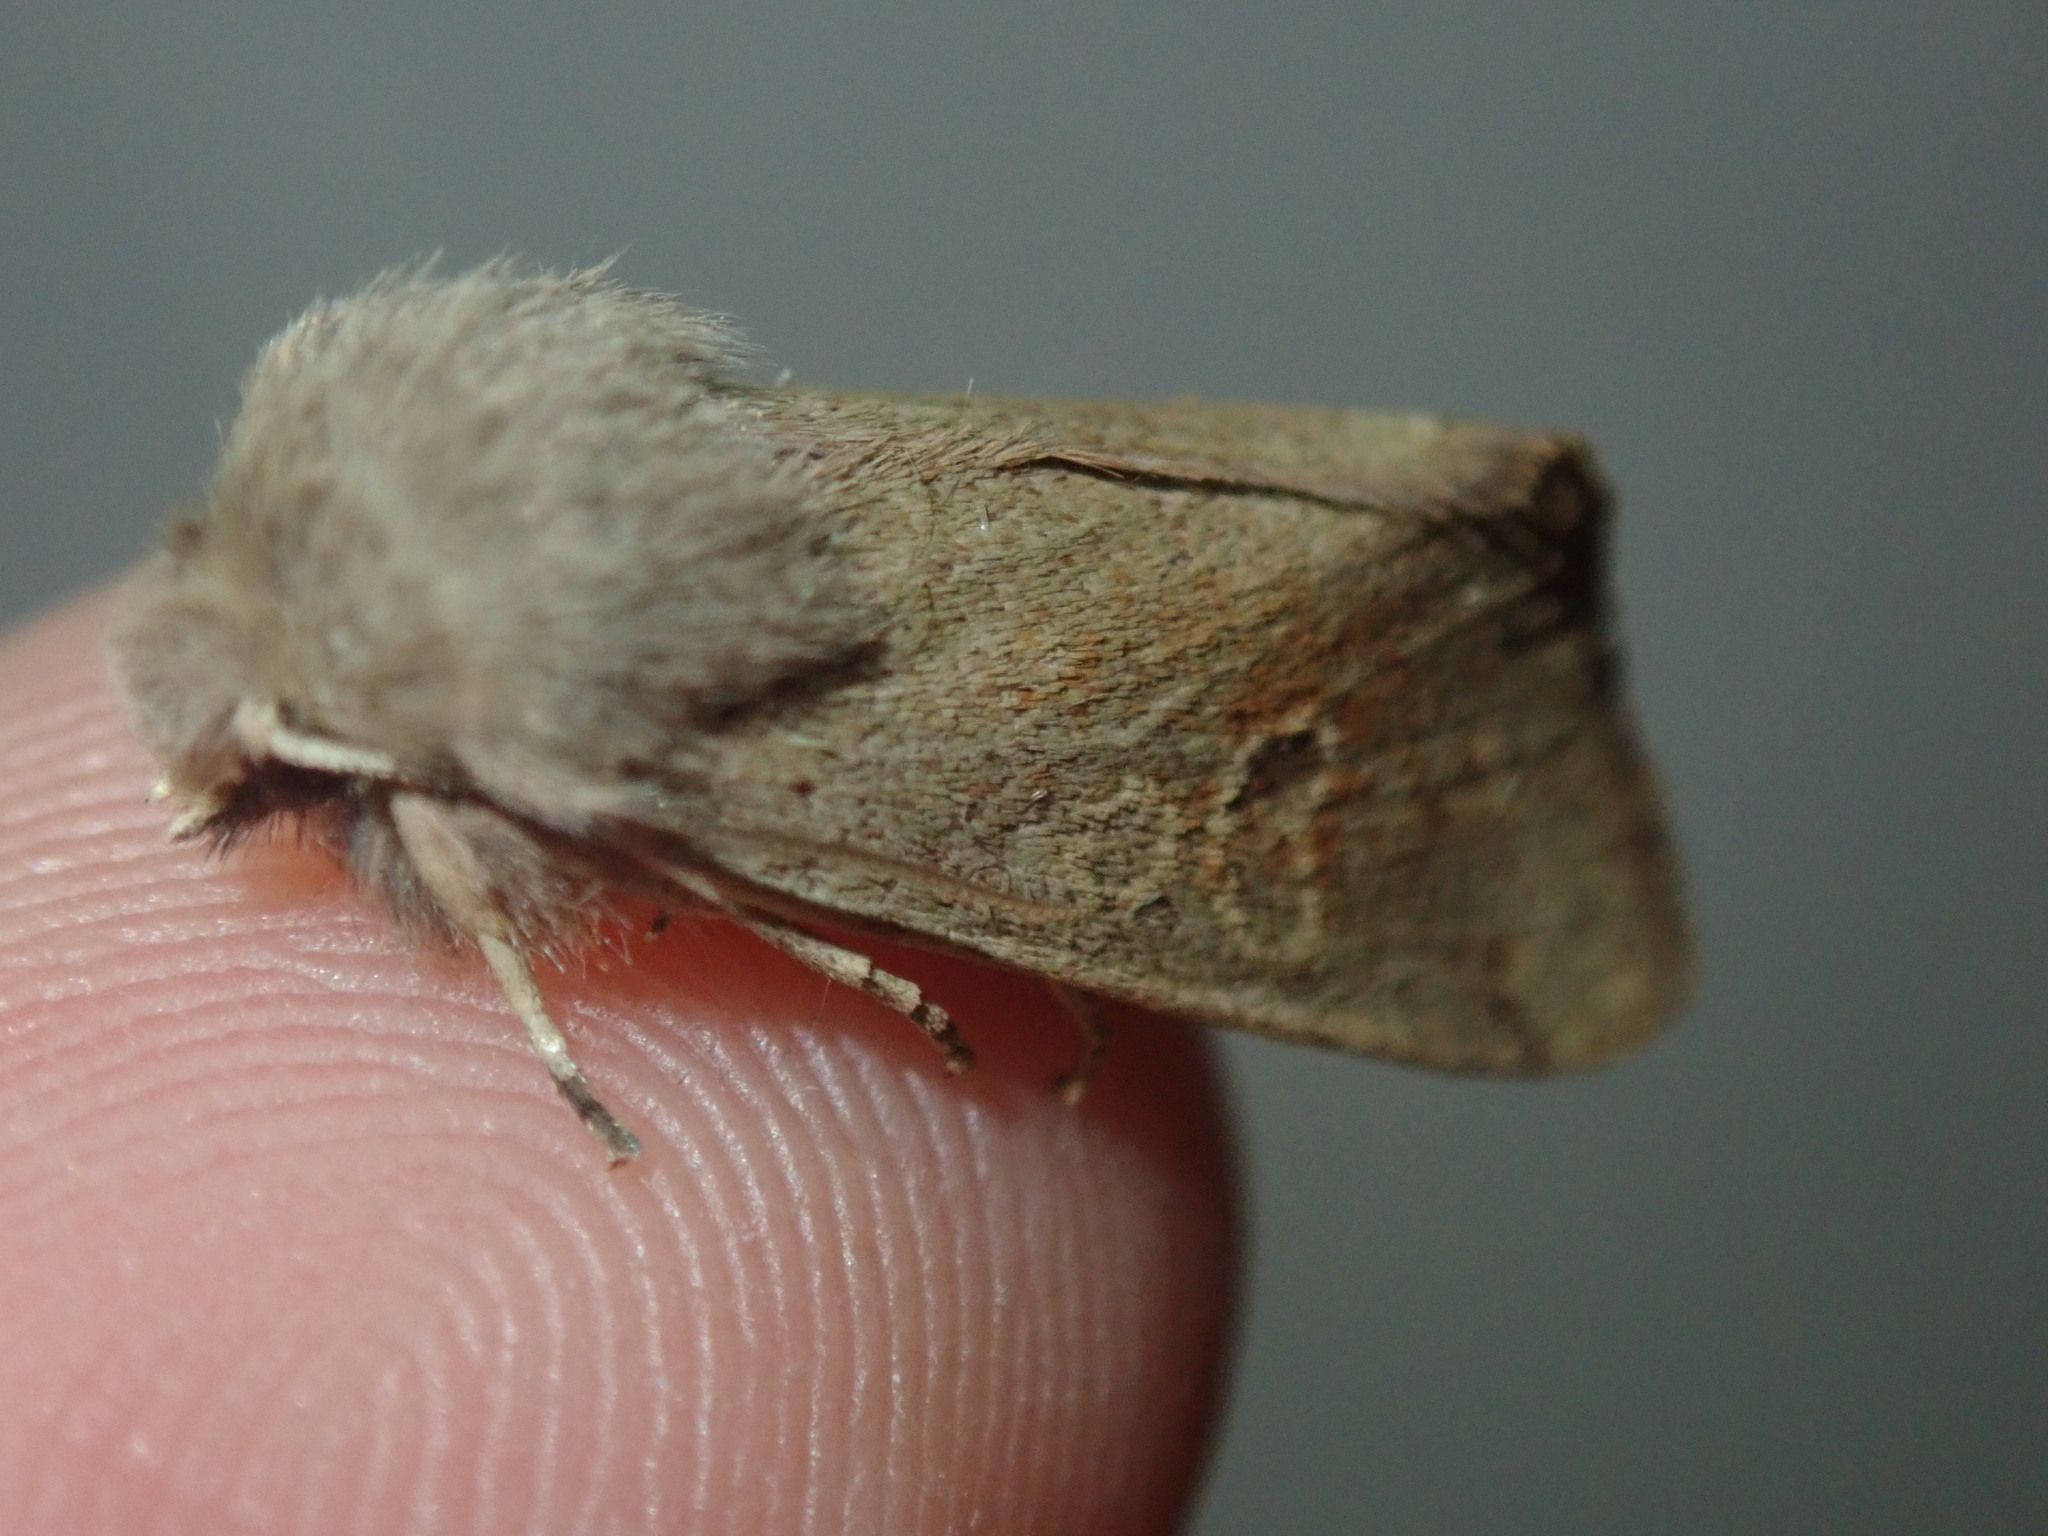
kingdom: Animalia
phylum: Arthropoda
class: Insecta
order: Lepidoptera
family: Noctuidae
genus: Orthosia
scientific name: Orthosia cruda
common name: Small quaker
